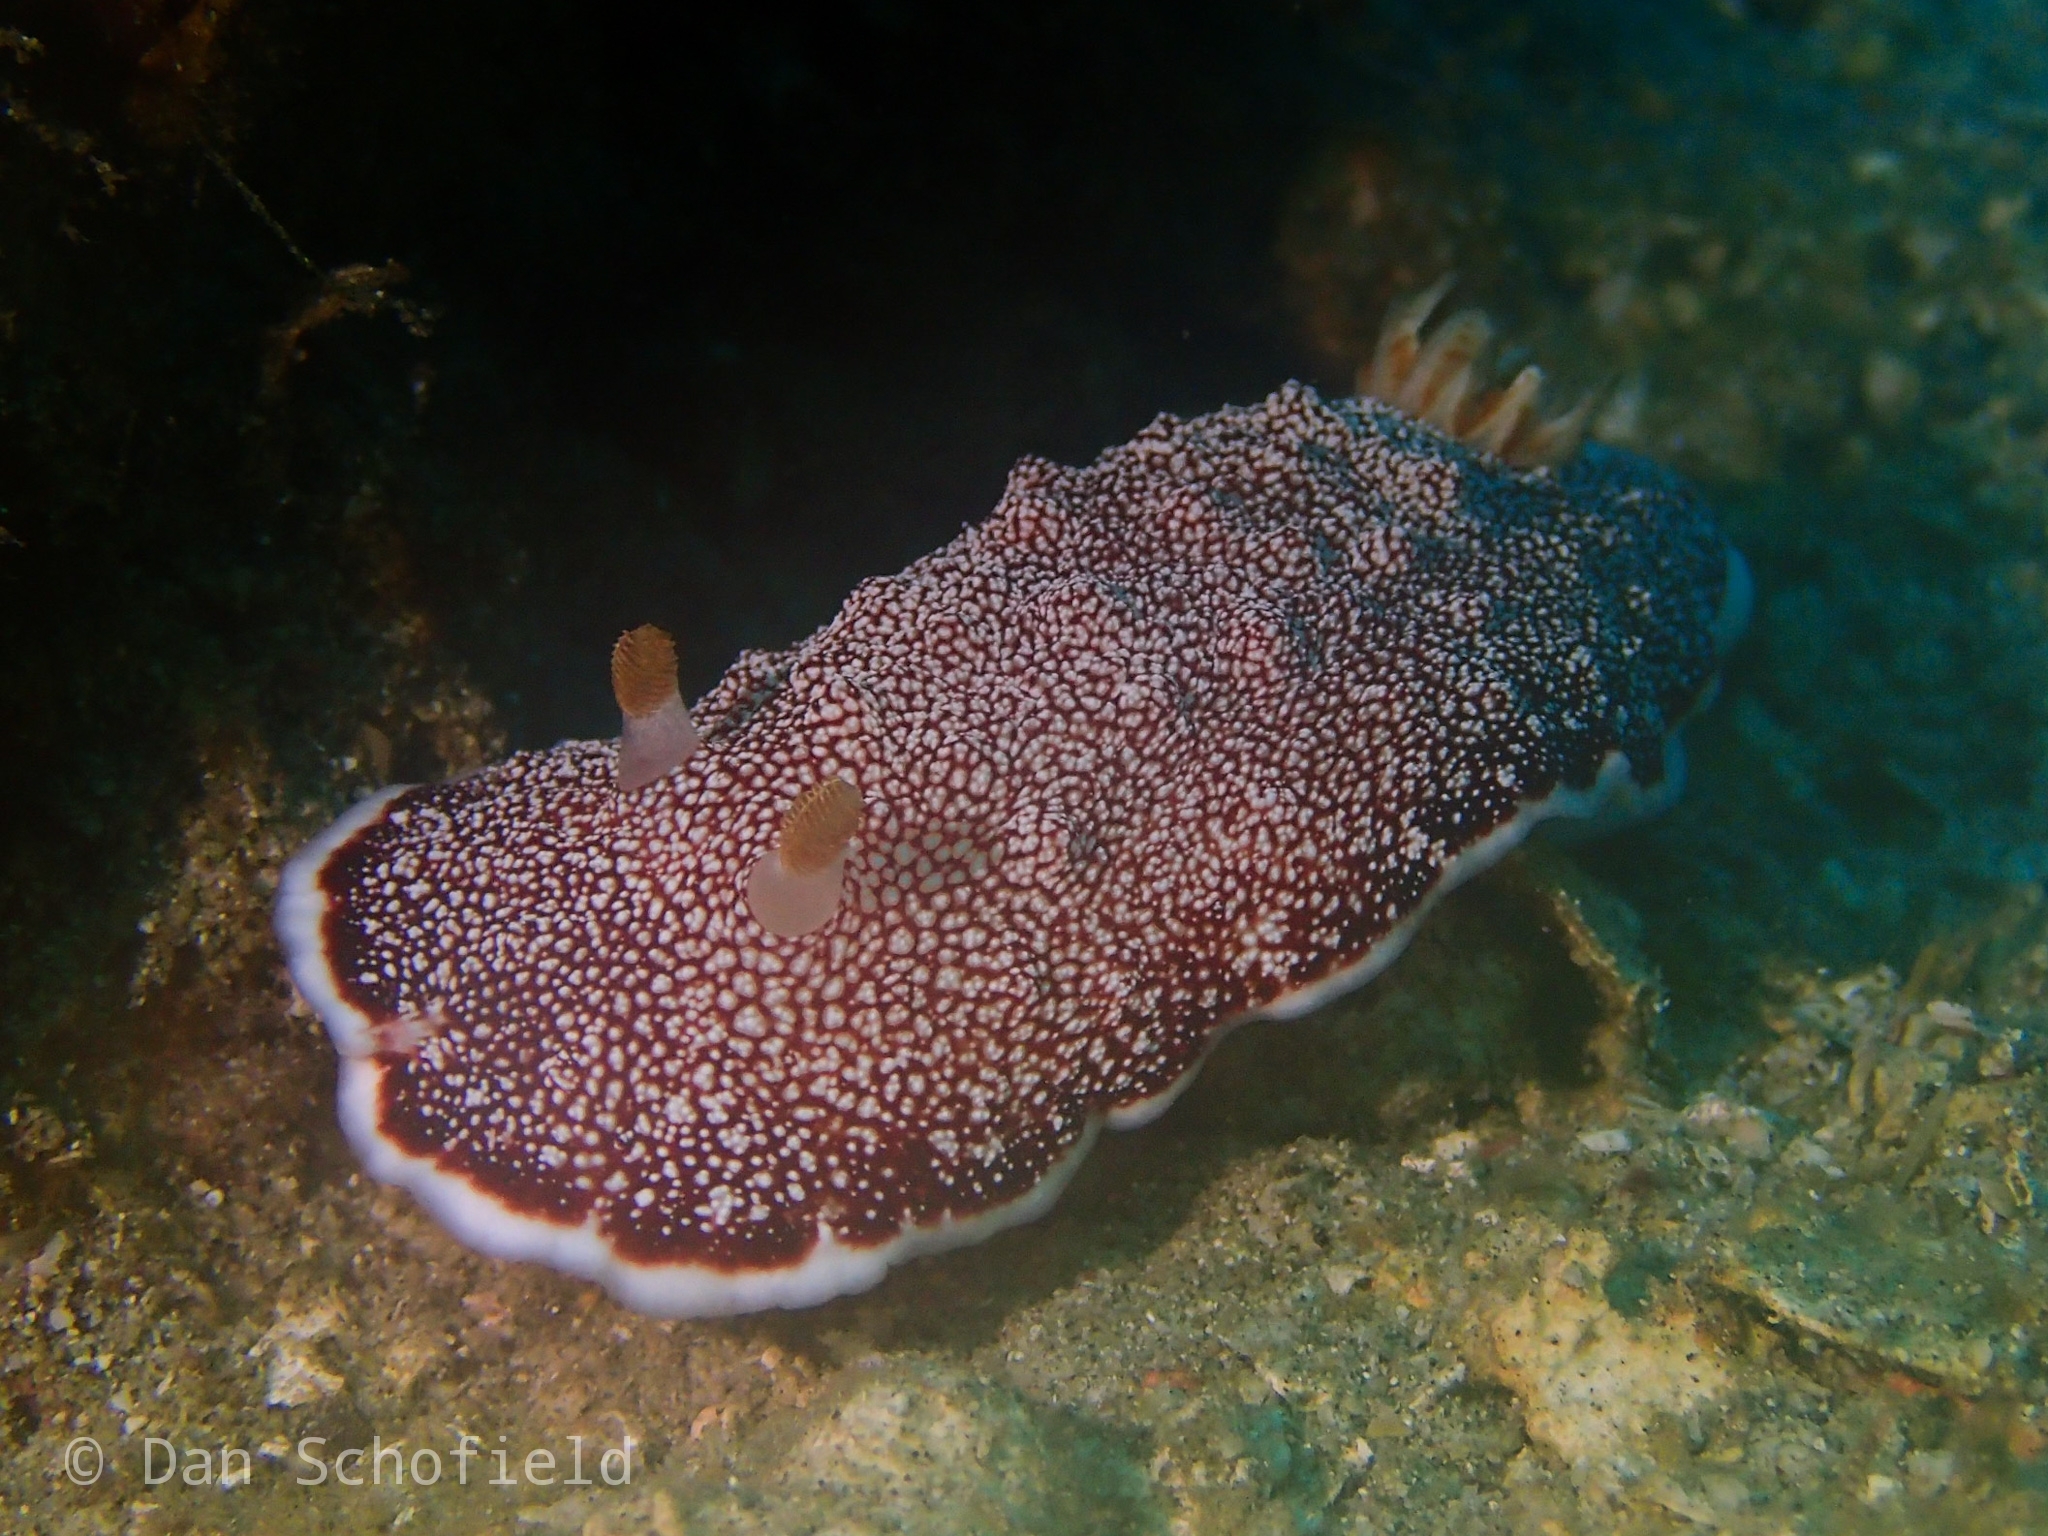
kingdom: Animalia
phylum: Mollusca
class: Gastropoda
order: Nudibranchia
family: Chromodorididae
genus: Goniobranchus
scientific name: Goniobranchus reticulatus
